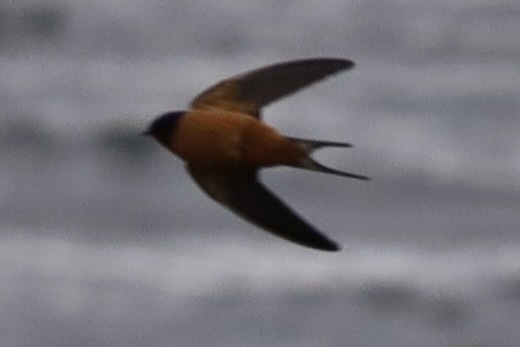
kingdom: Animalia
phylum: Chordata
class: Aves
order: Passeriformes
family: Hirundinidae
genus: Hirundo
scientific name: Hirundo rustica
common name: Barn swallow
